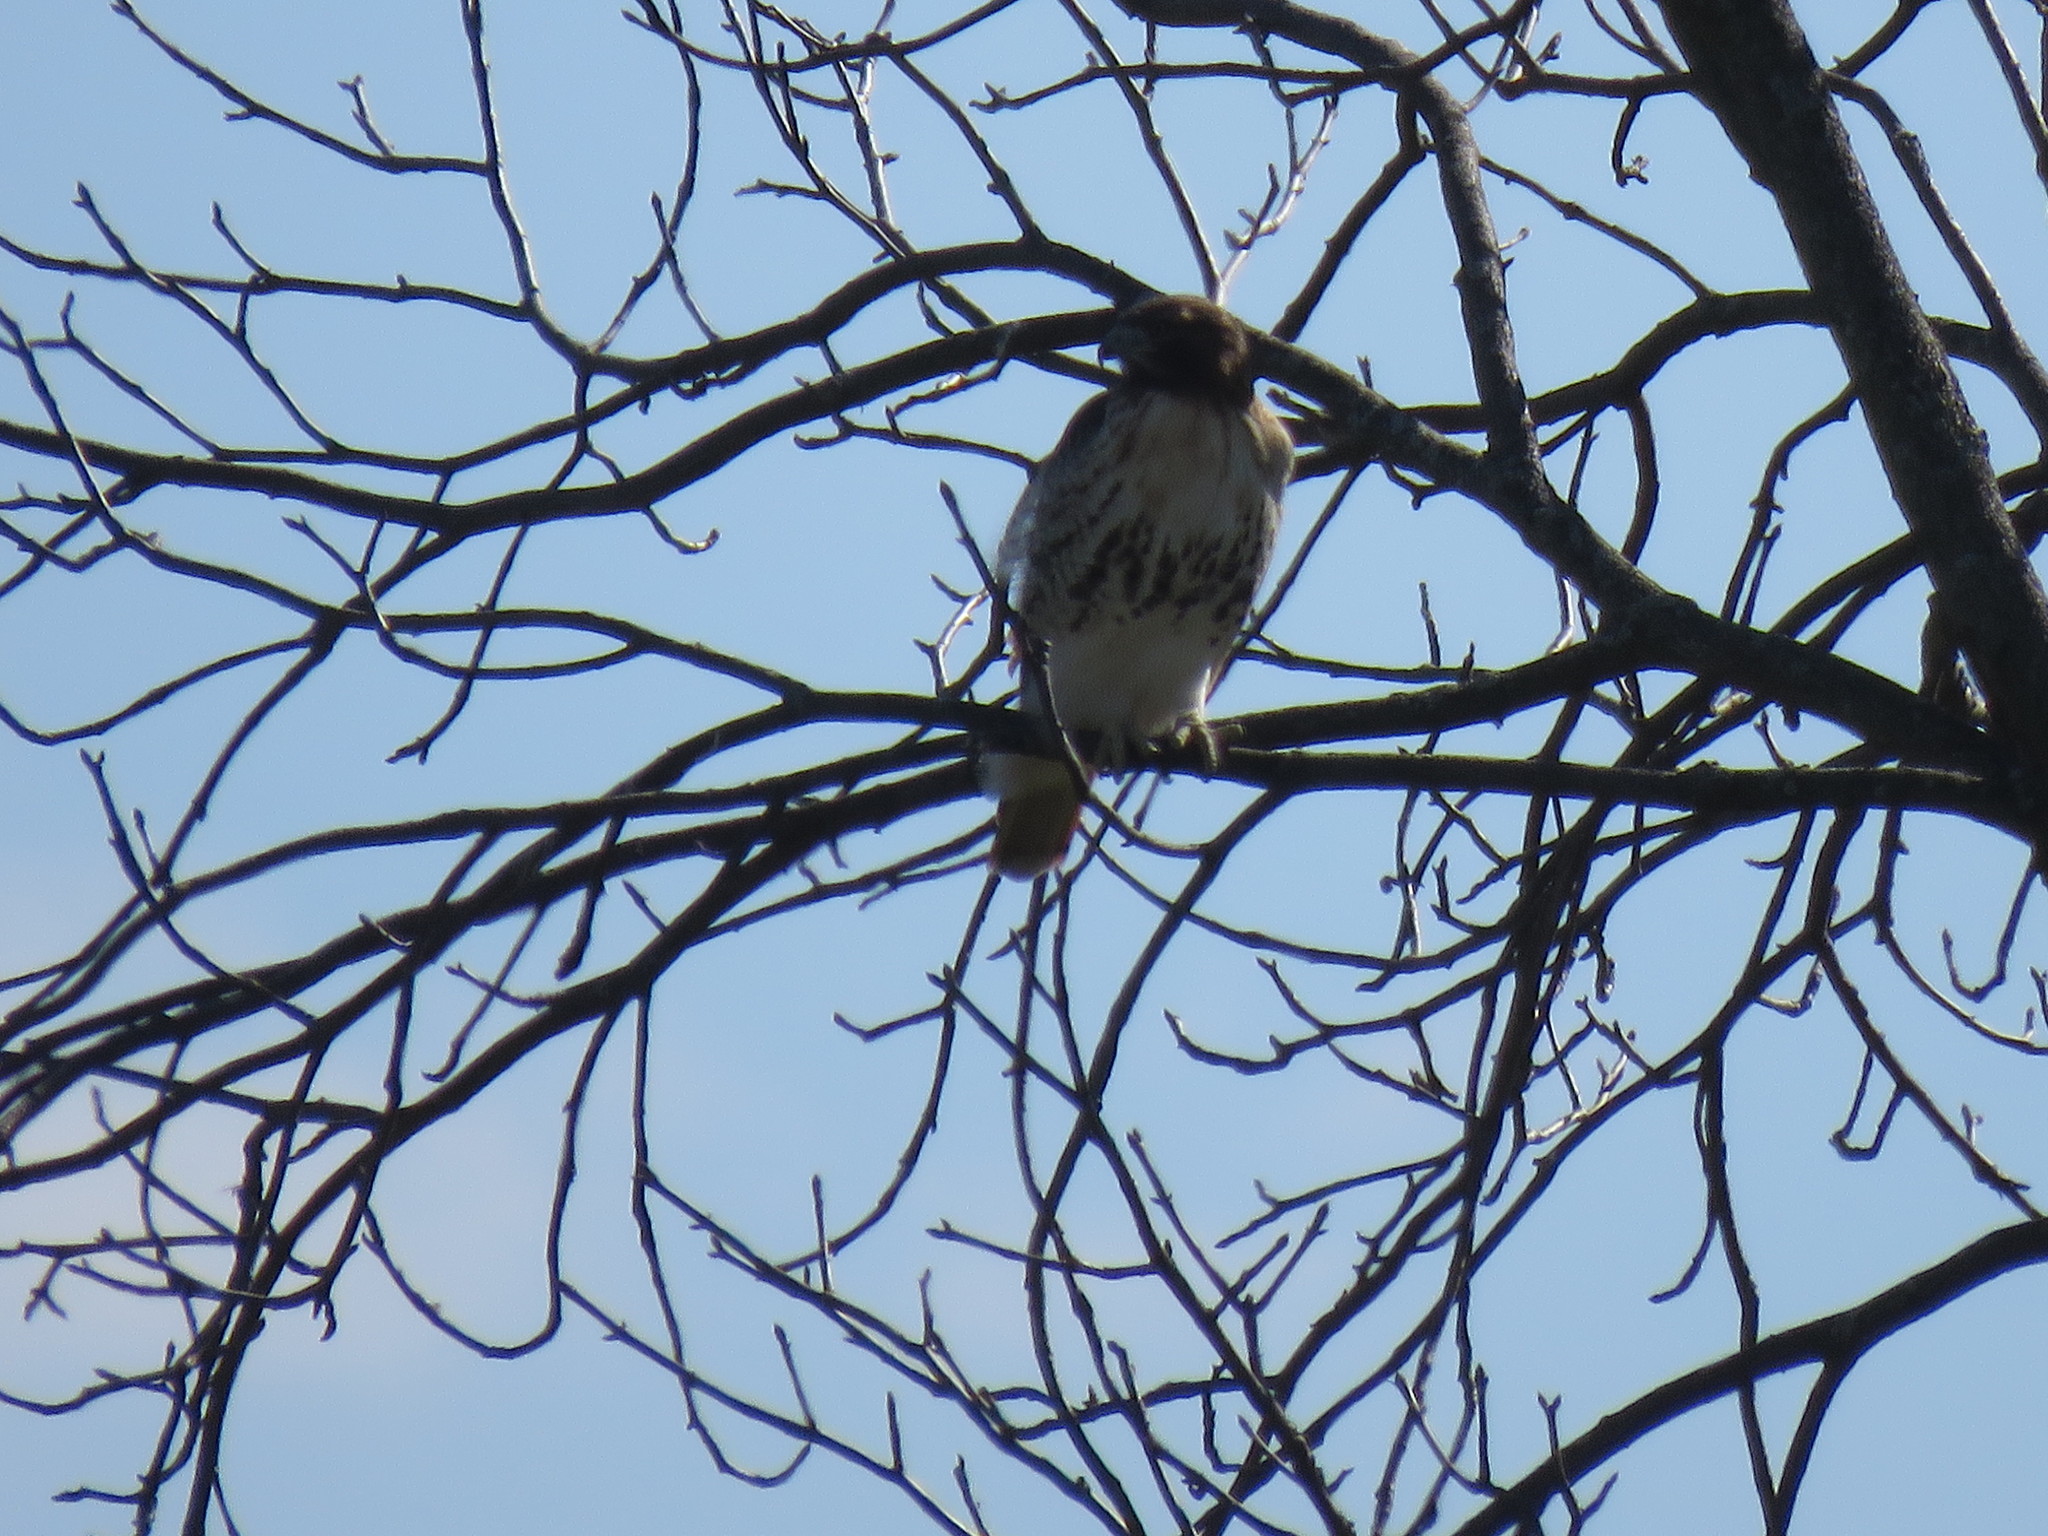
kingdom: Animalia
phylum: Chordata
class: Aves
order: Accipitriformes
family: Accipitridae
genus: Buteo
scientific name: Buteo jamaicensis
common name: Red-tailed hawk
